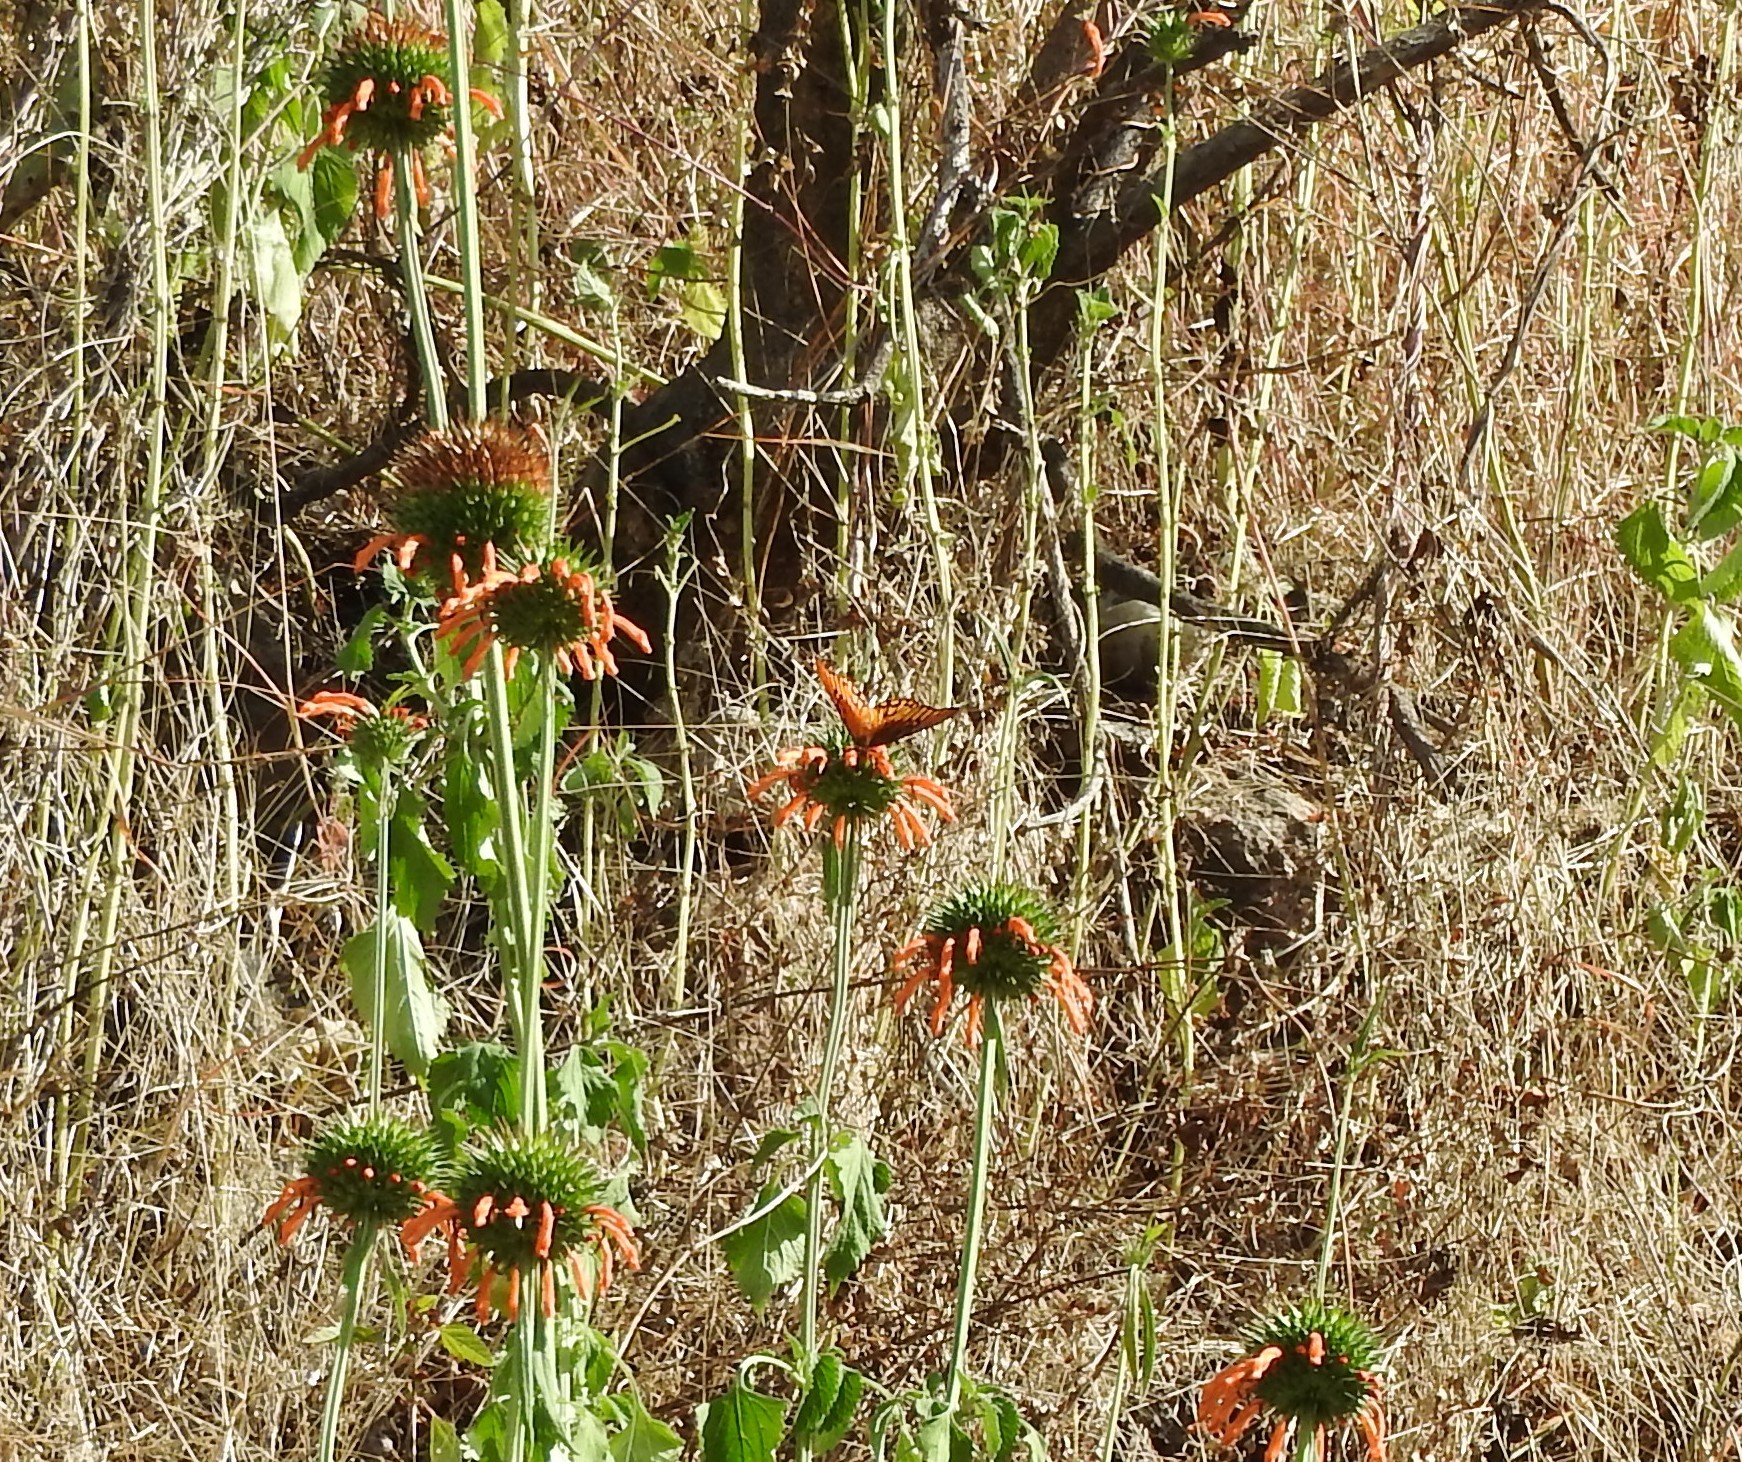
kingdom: Animalia
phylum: Arthropoda
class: Insecta
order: Lepidoptera
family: Nymphalidae
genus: Dione
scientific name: Dione moneta
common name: Mexican silverspot
